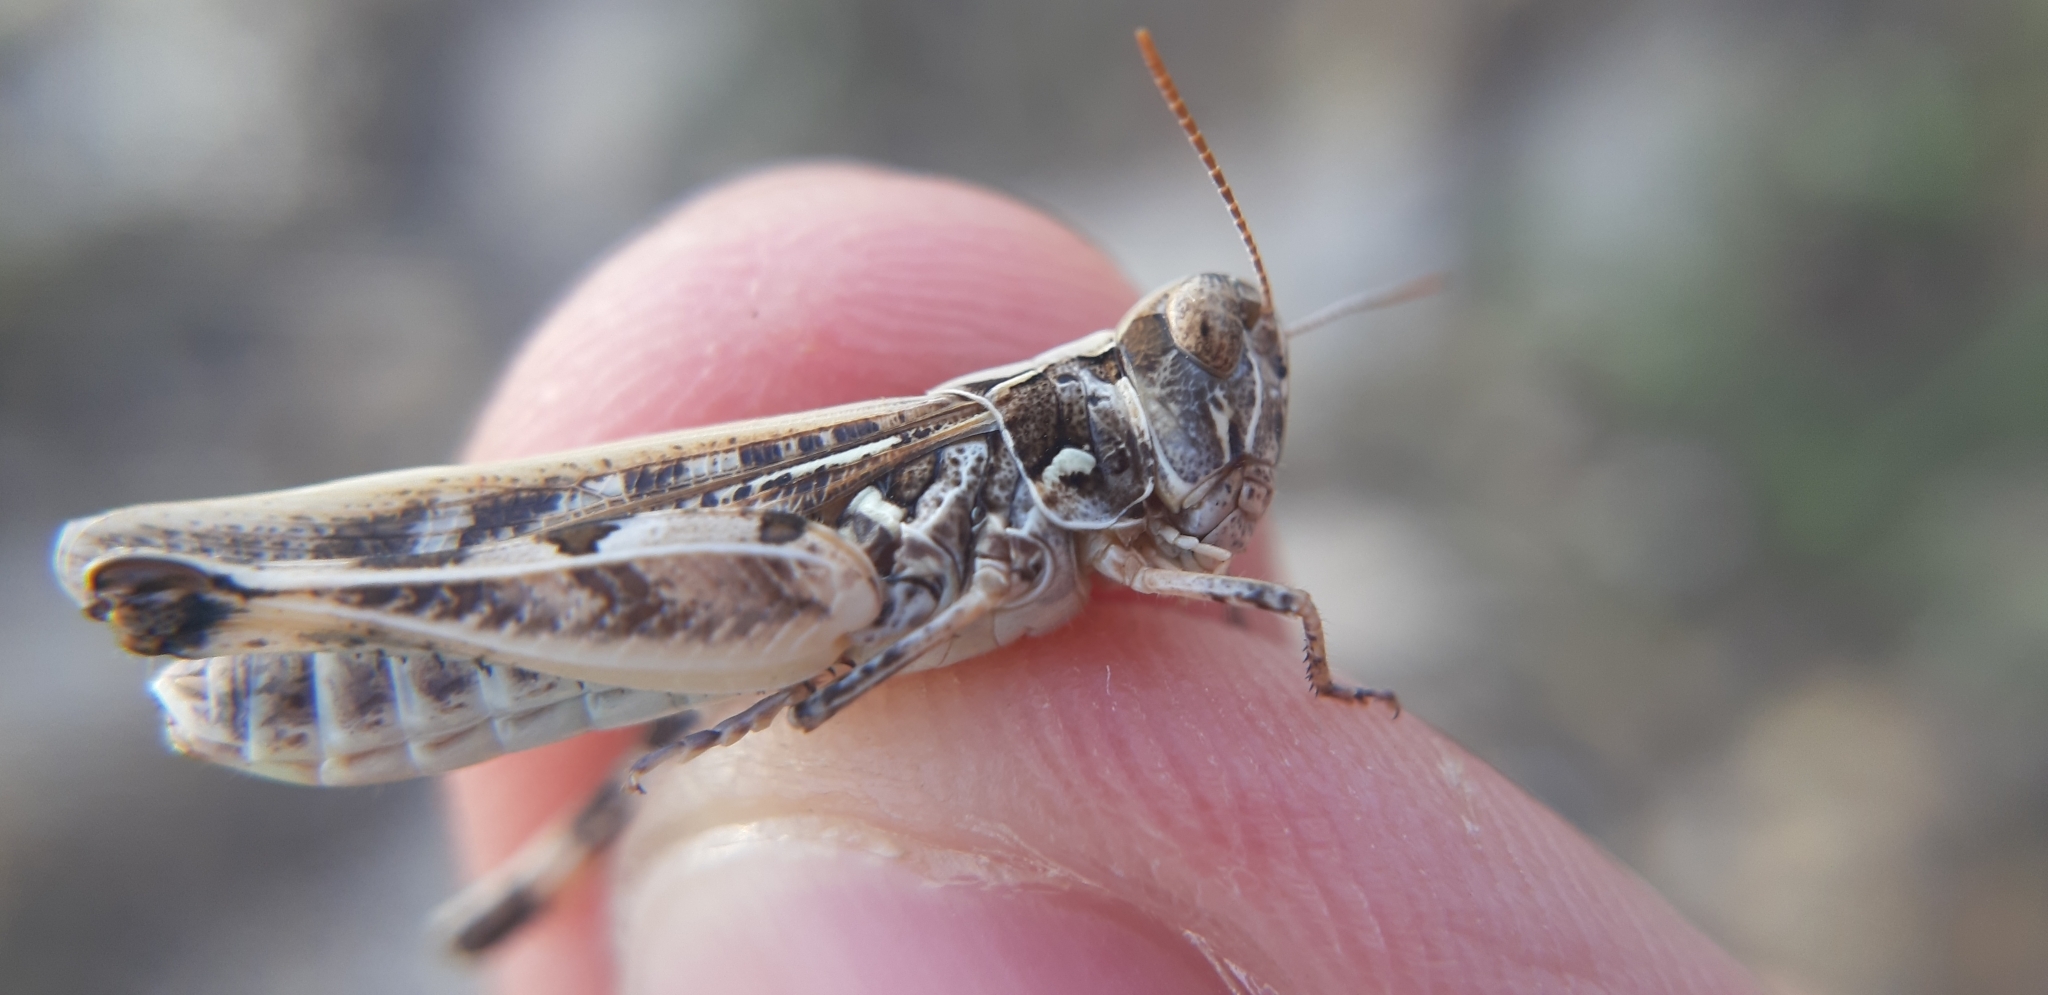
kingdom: Animalia
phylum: Arthropoda
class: Insecta
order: Orthoptera
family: Acrididae
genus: Dociostaurus
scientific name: Dociostaurus genei
